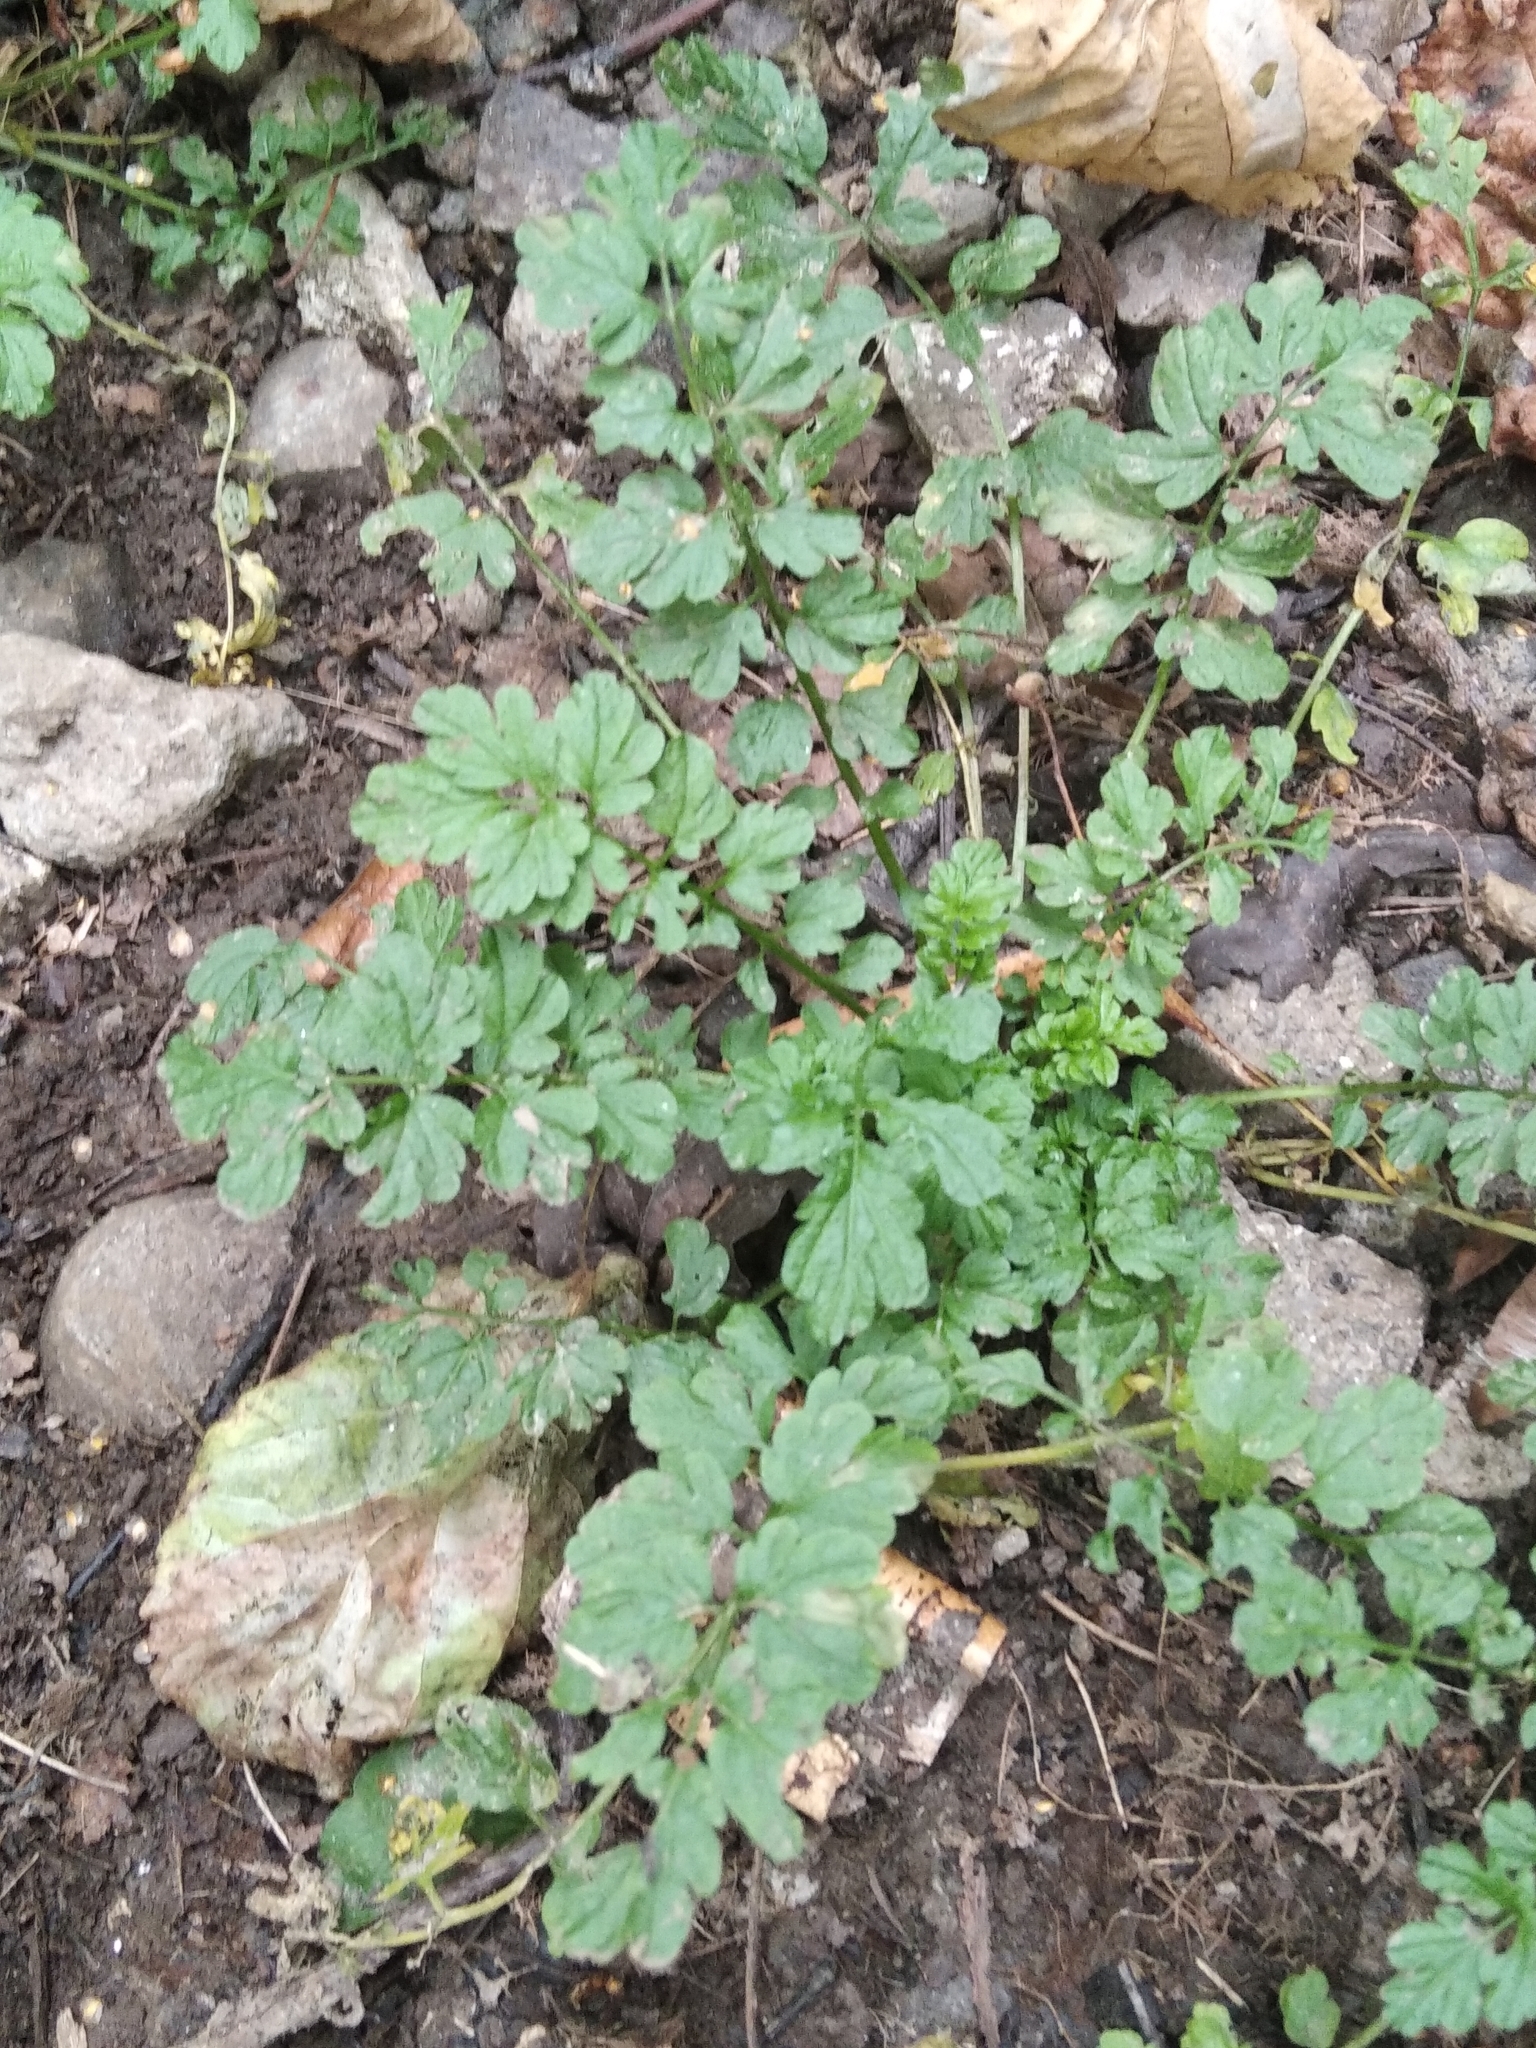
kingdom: Plantae
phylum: Tracheophyta
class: Magnoliopsida
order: Brassicales
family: Brassicaceae
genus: Cardamine
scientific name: Cardamine impatiens
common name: Narrow-leaved bitter-cress
